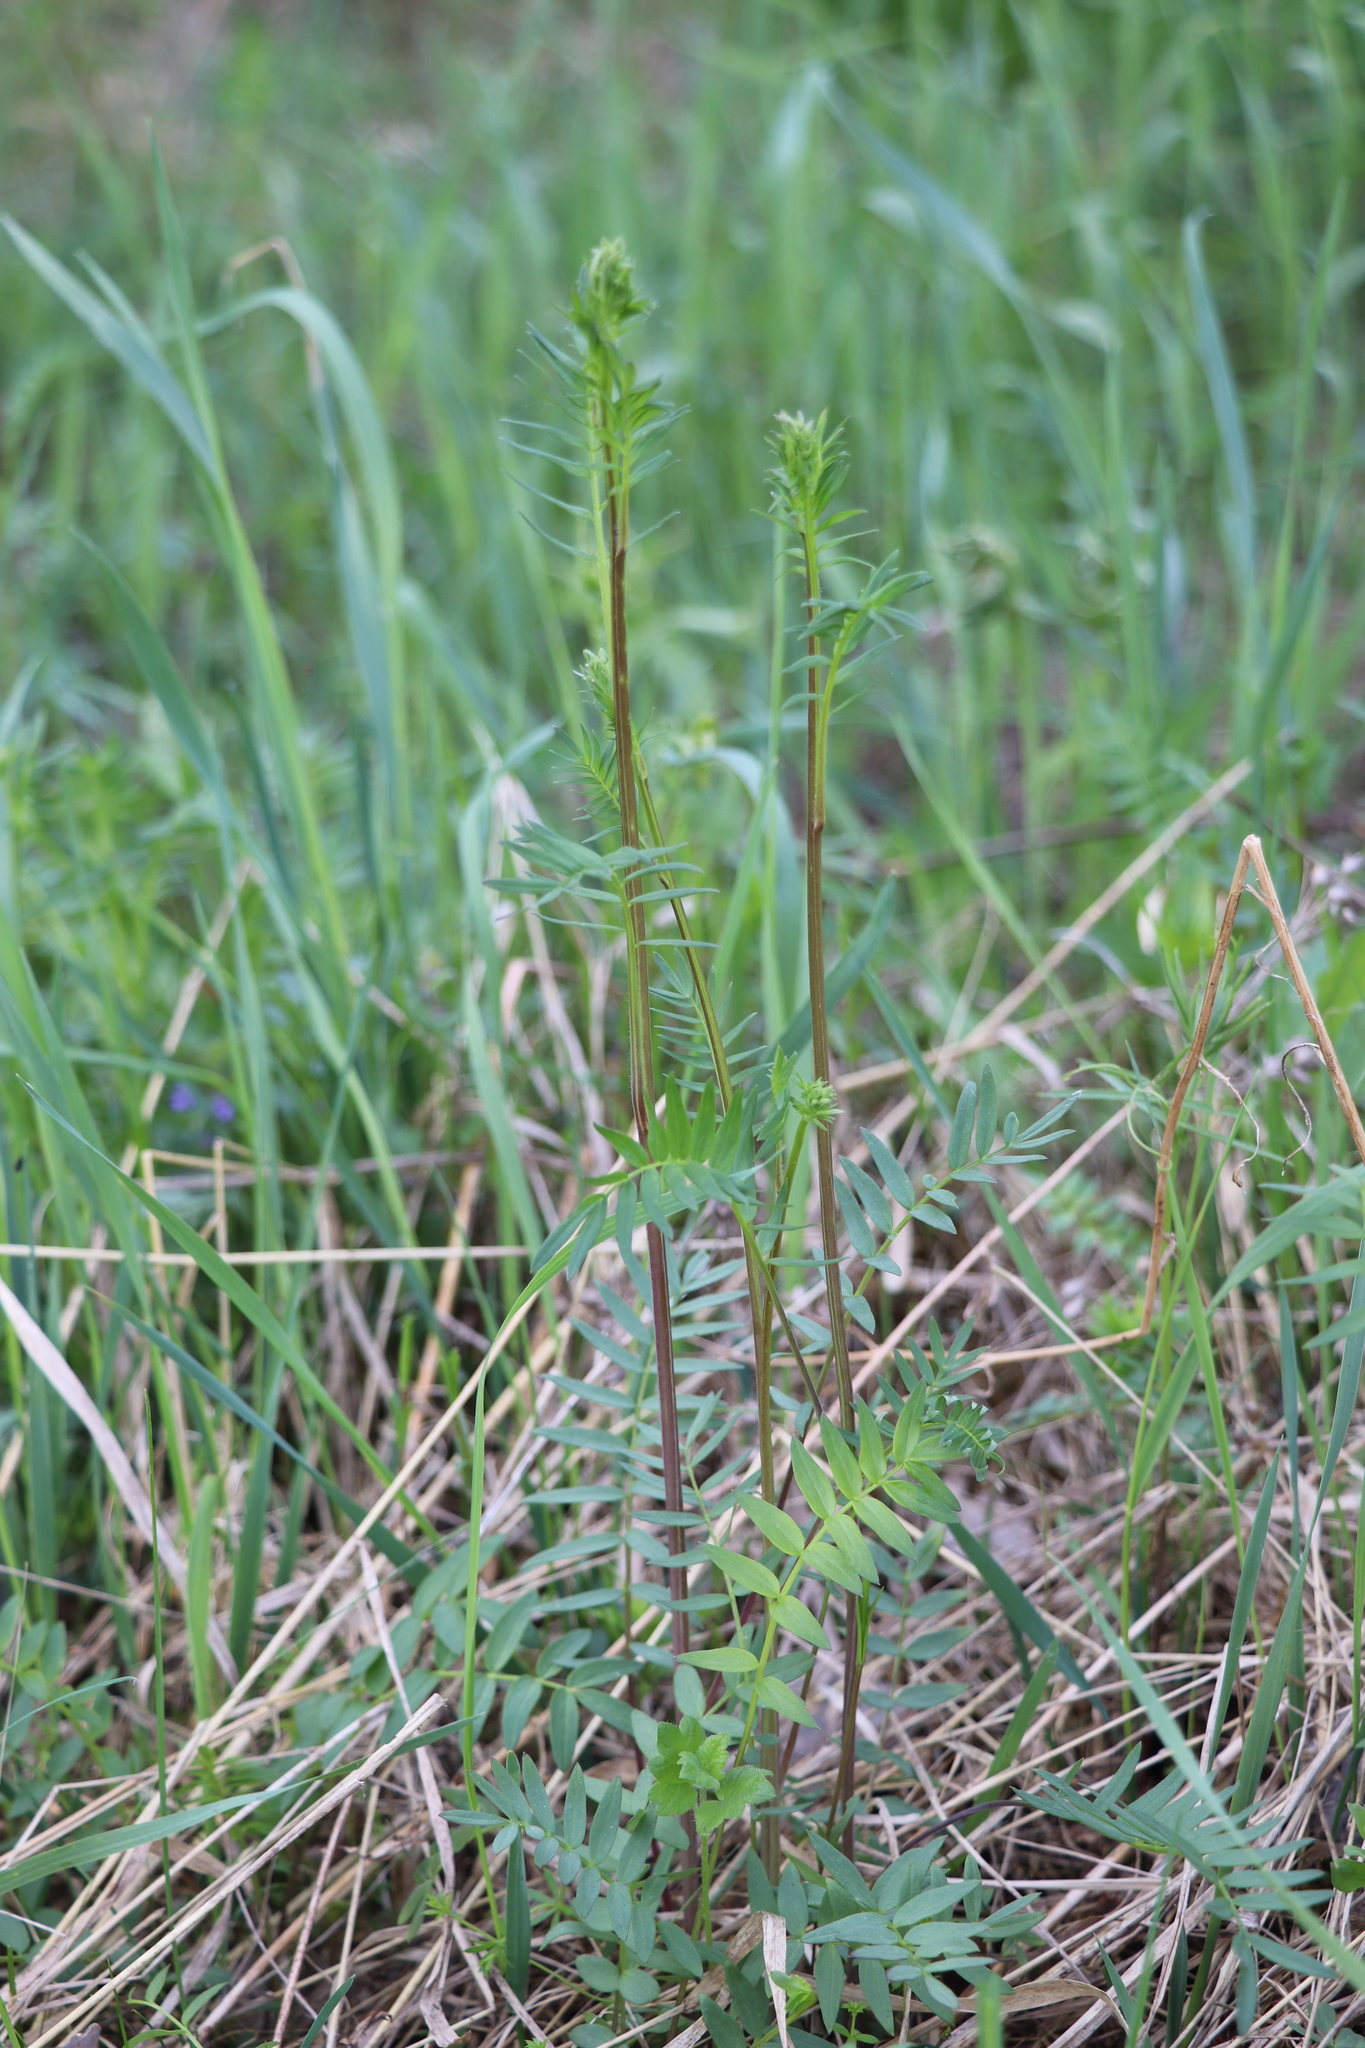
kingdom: Plantae
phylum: Tracheophyta
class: Magnoliopsida
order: Ericales
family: Polemoniaceae
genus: Polemonium
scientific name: Polemonium caeruleum
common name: Jacob's-ladder
